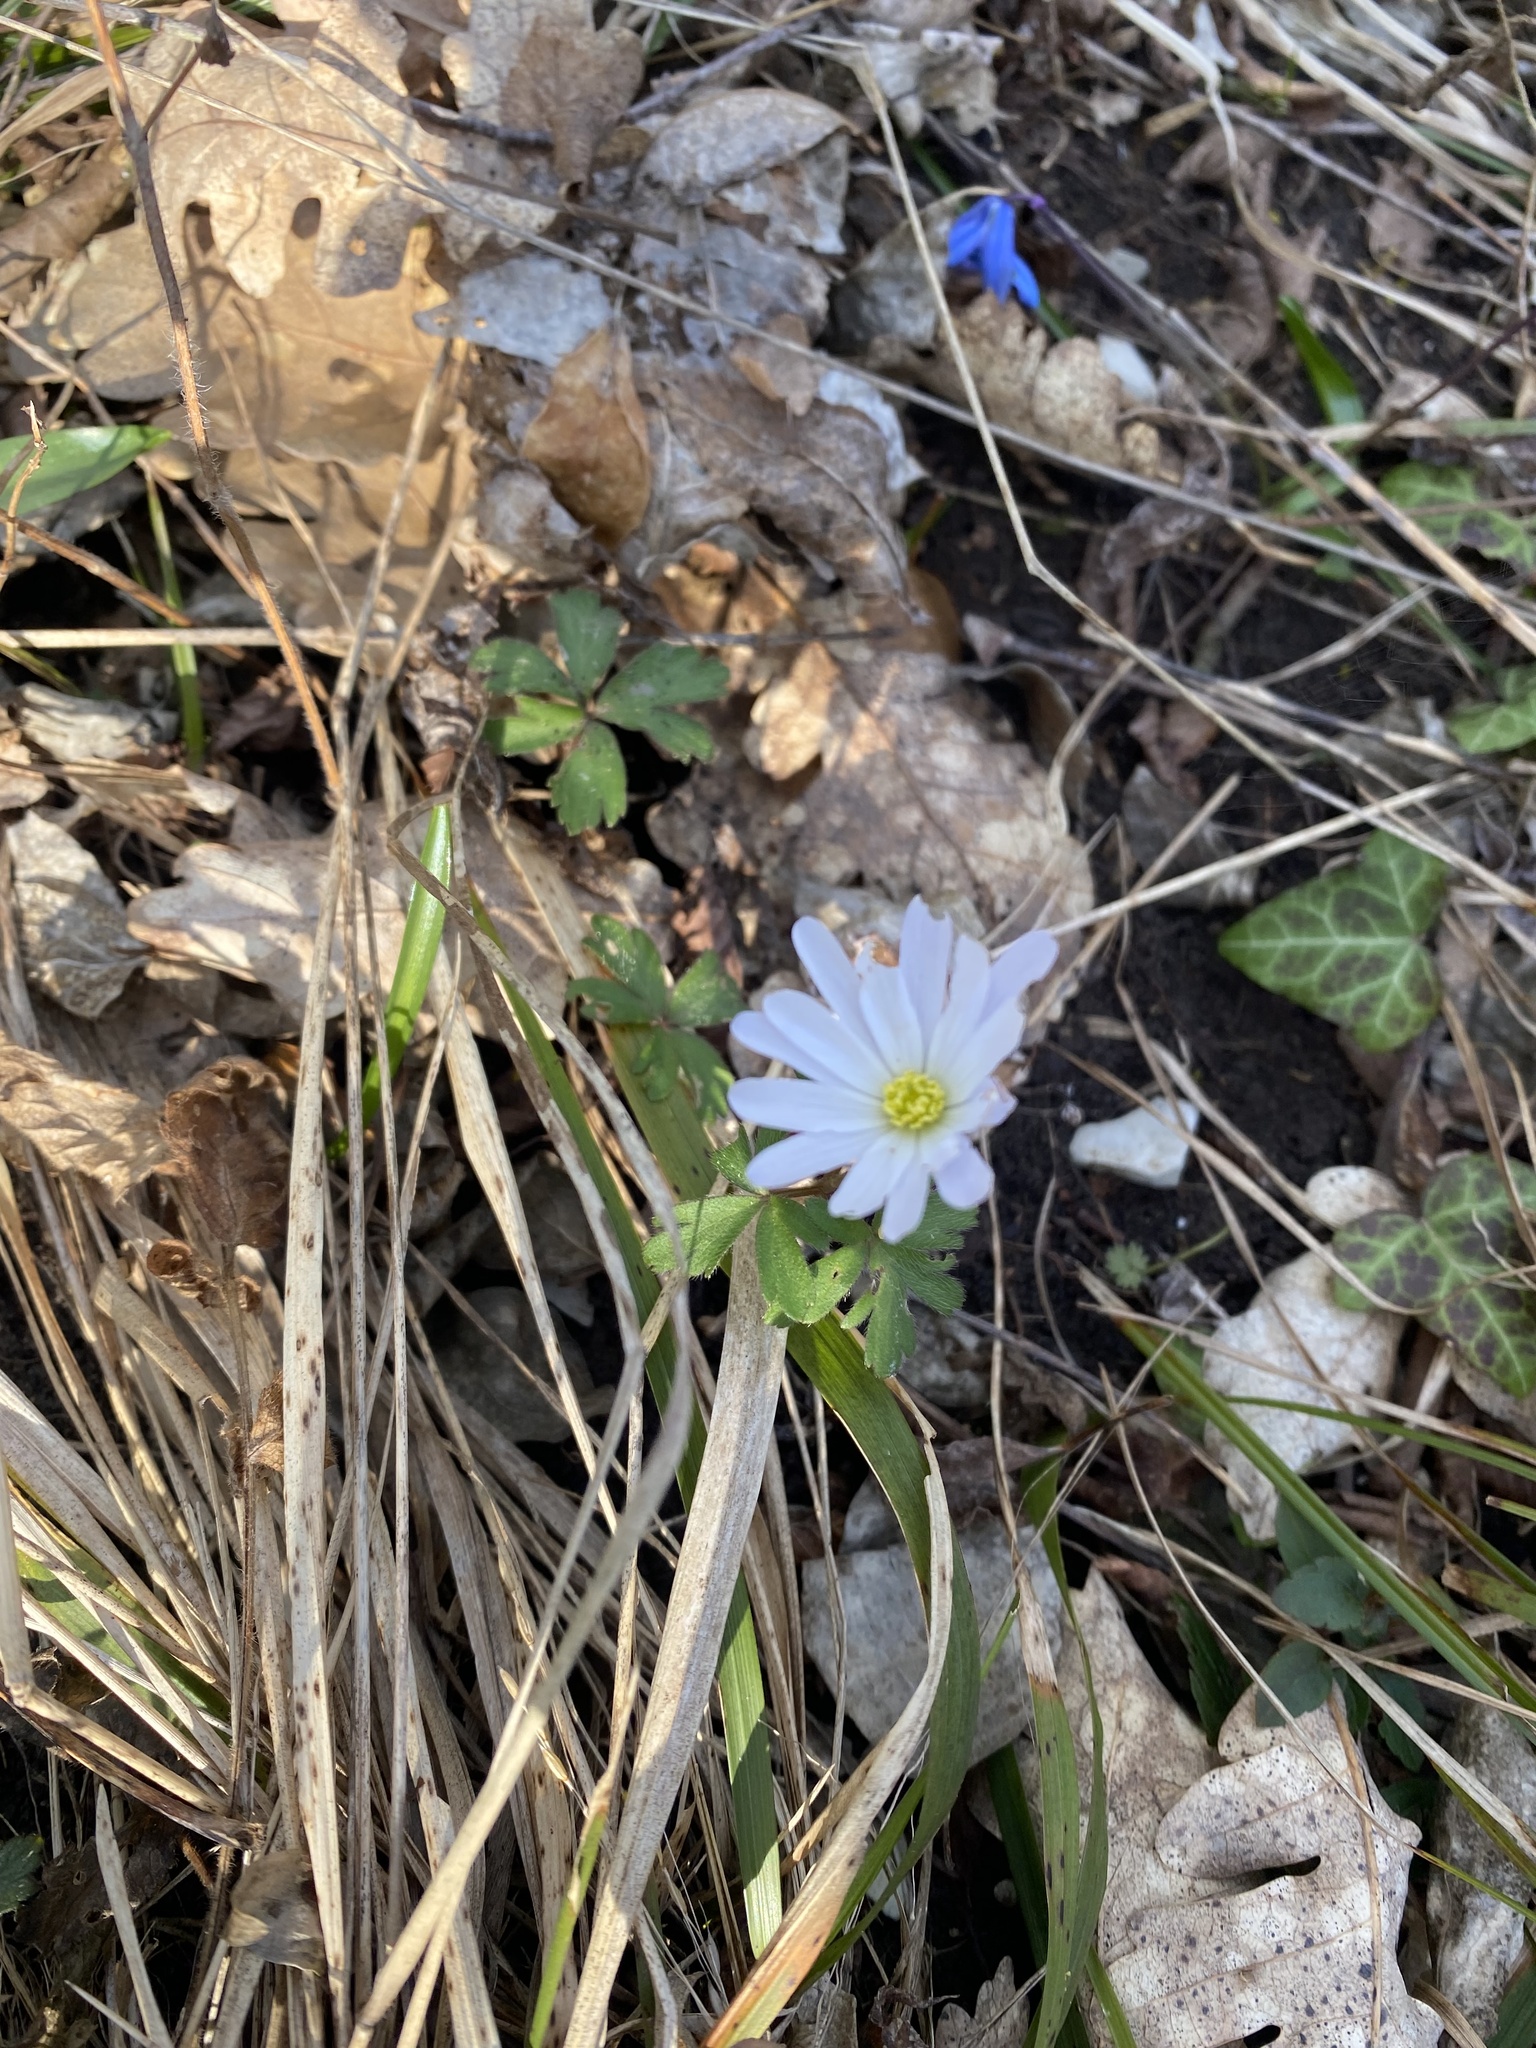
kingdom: Plantae
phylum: Tracheophyta
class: Magnoliopsida
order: Ranunculales
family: Ranunculaceae
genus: Anemone
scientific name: Anemone blanda
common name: Balkan anemone
